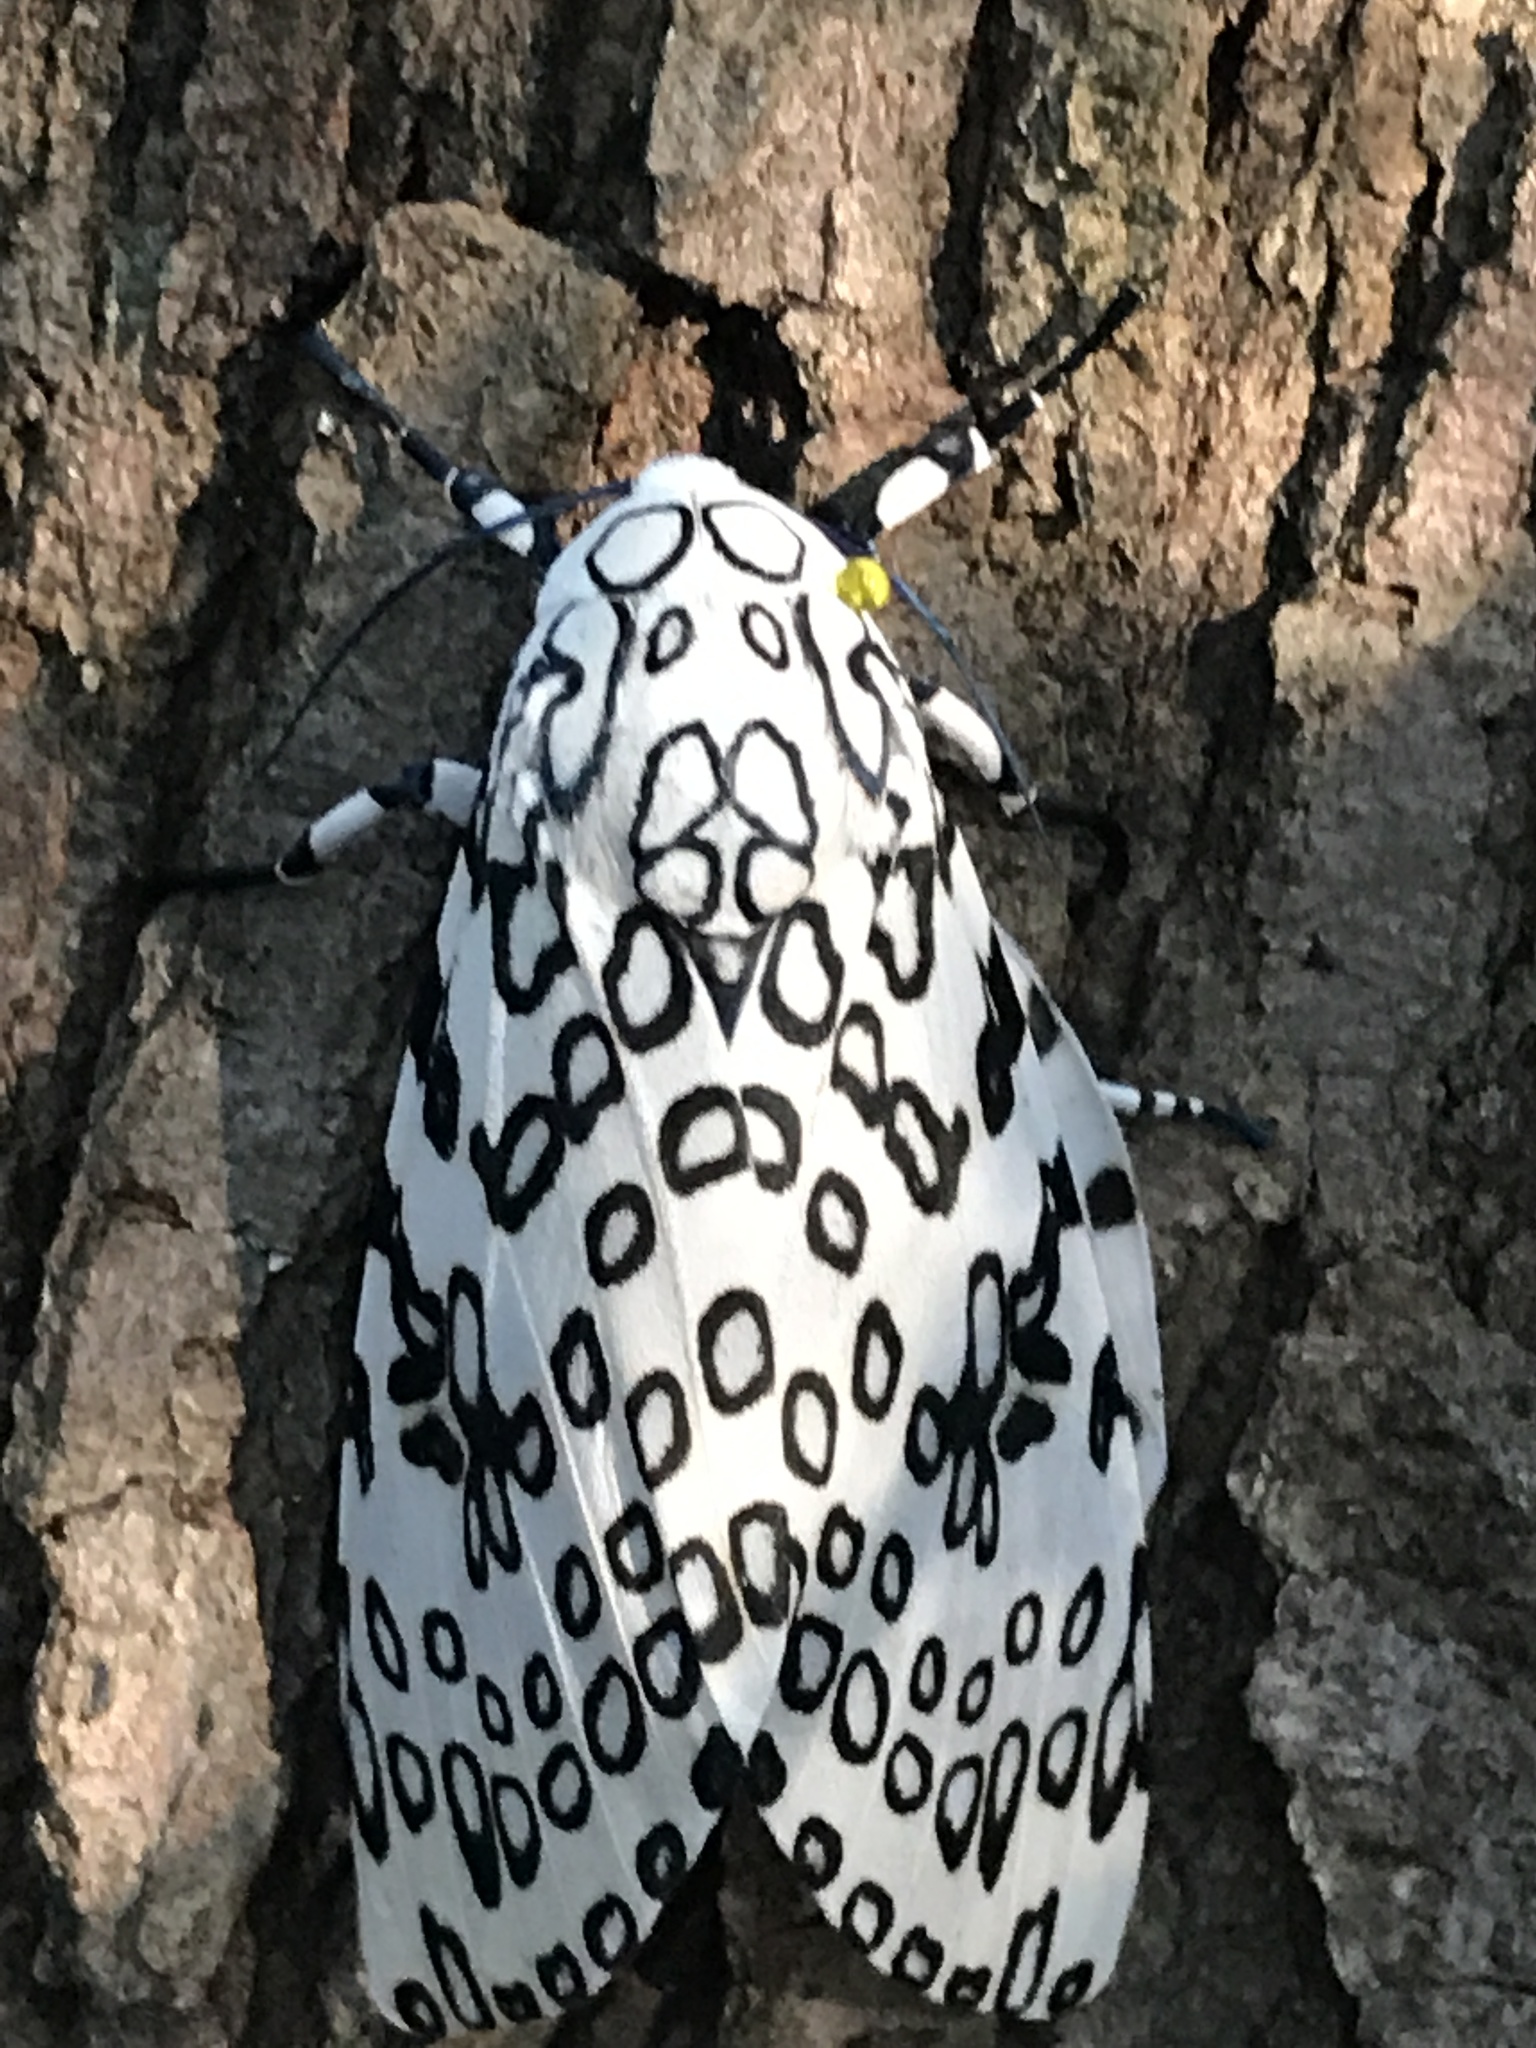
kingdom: Animalia
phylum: Arthropoda
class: Insecta
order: Lepidoptera
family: Erebidae
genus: Hypercompe
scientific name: Hypercompe scribonia
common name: Giant leopard moth
